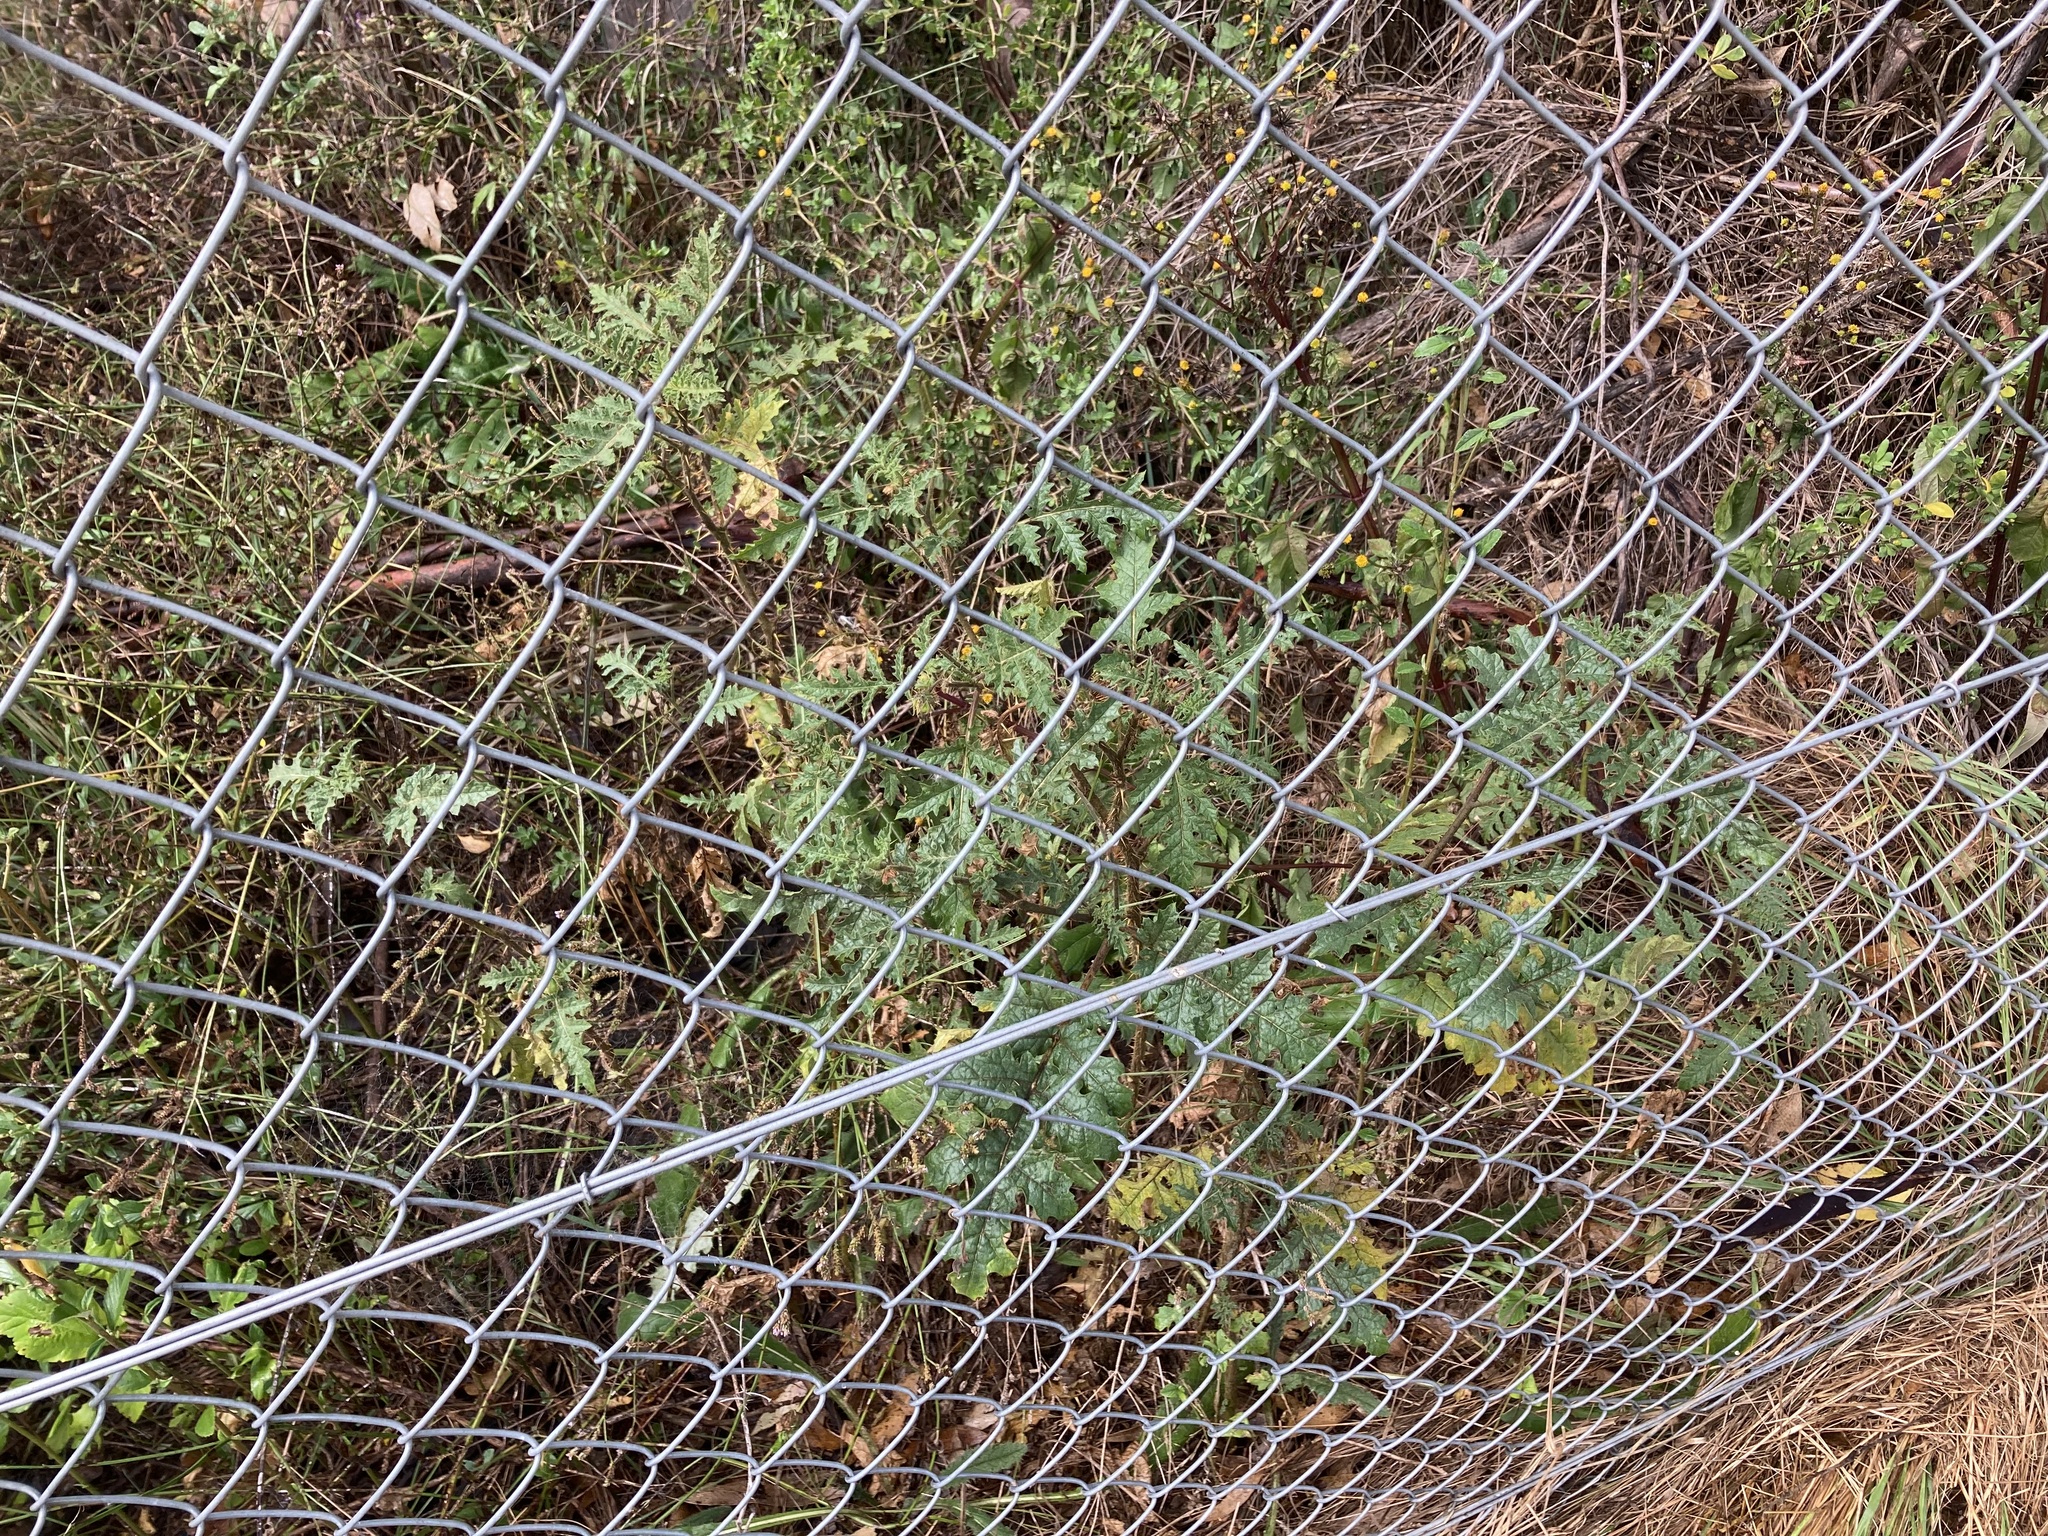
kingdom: Plantae
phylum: Tracheophyta
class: Magnoliopsida
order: Solanales
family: Solanaceae
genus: Solanum
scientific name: Solanum sisymbriifolium
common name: Red buffalo-bur
